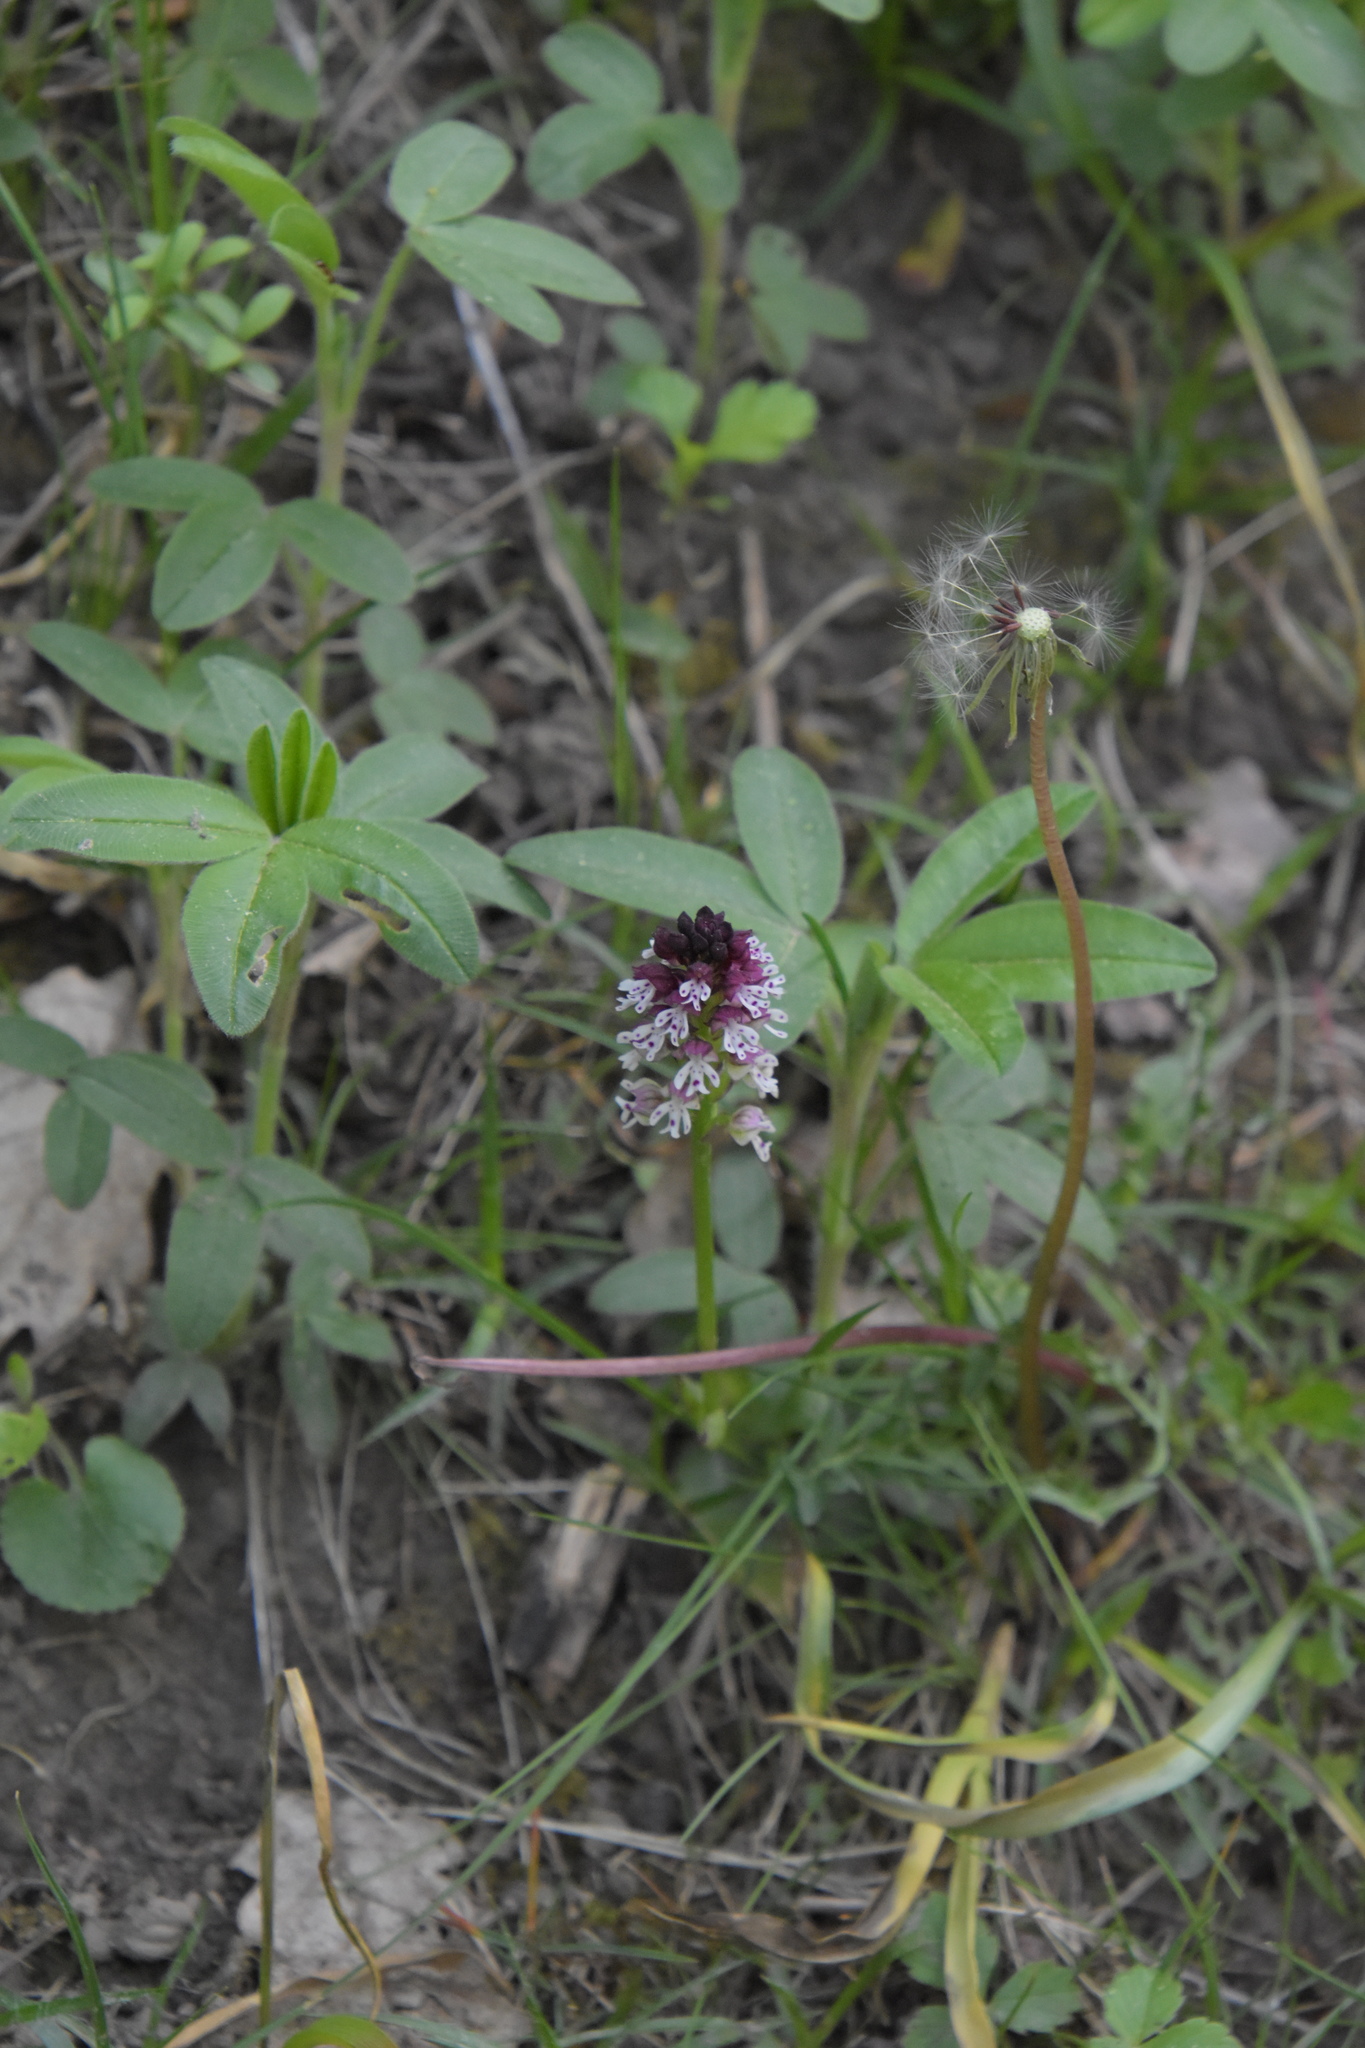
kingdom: Plantae
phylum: Tracheophyta
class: Liliopsida
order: Asparagales
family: Orchidaceae
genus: Neotinea
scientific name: Neotinea ustulata
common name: Burnt orchid
